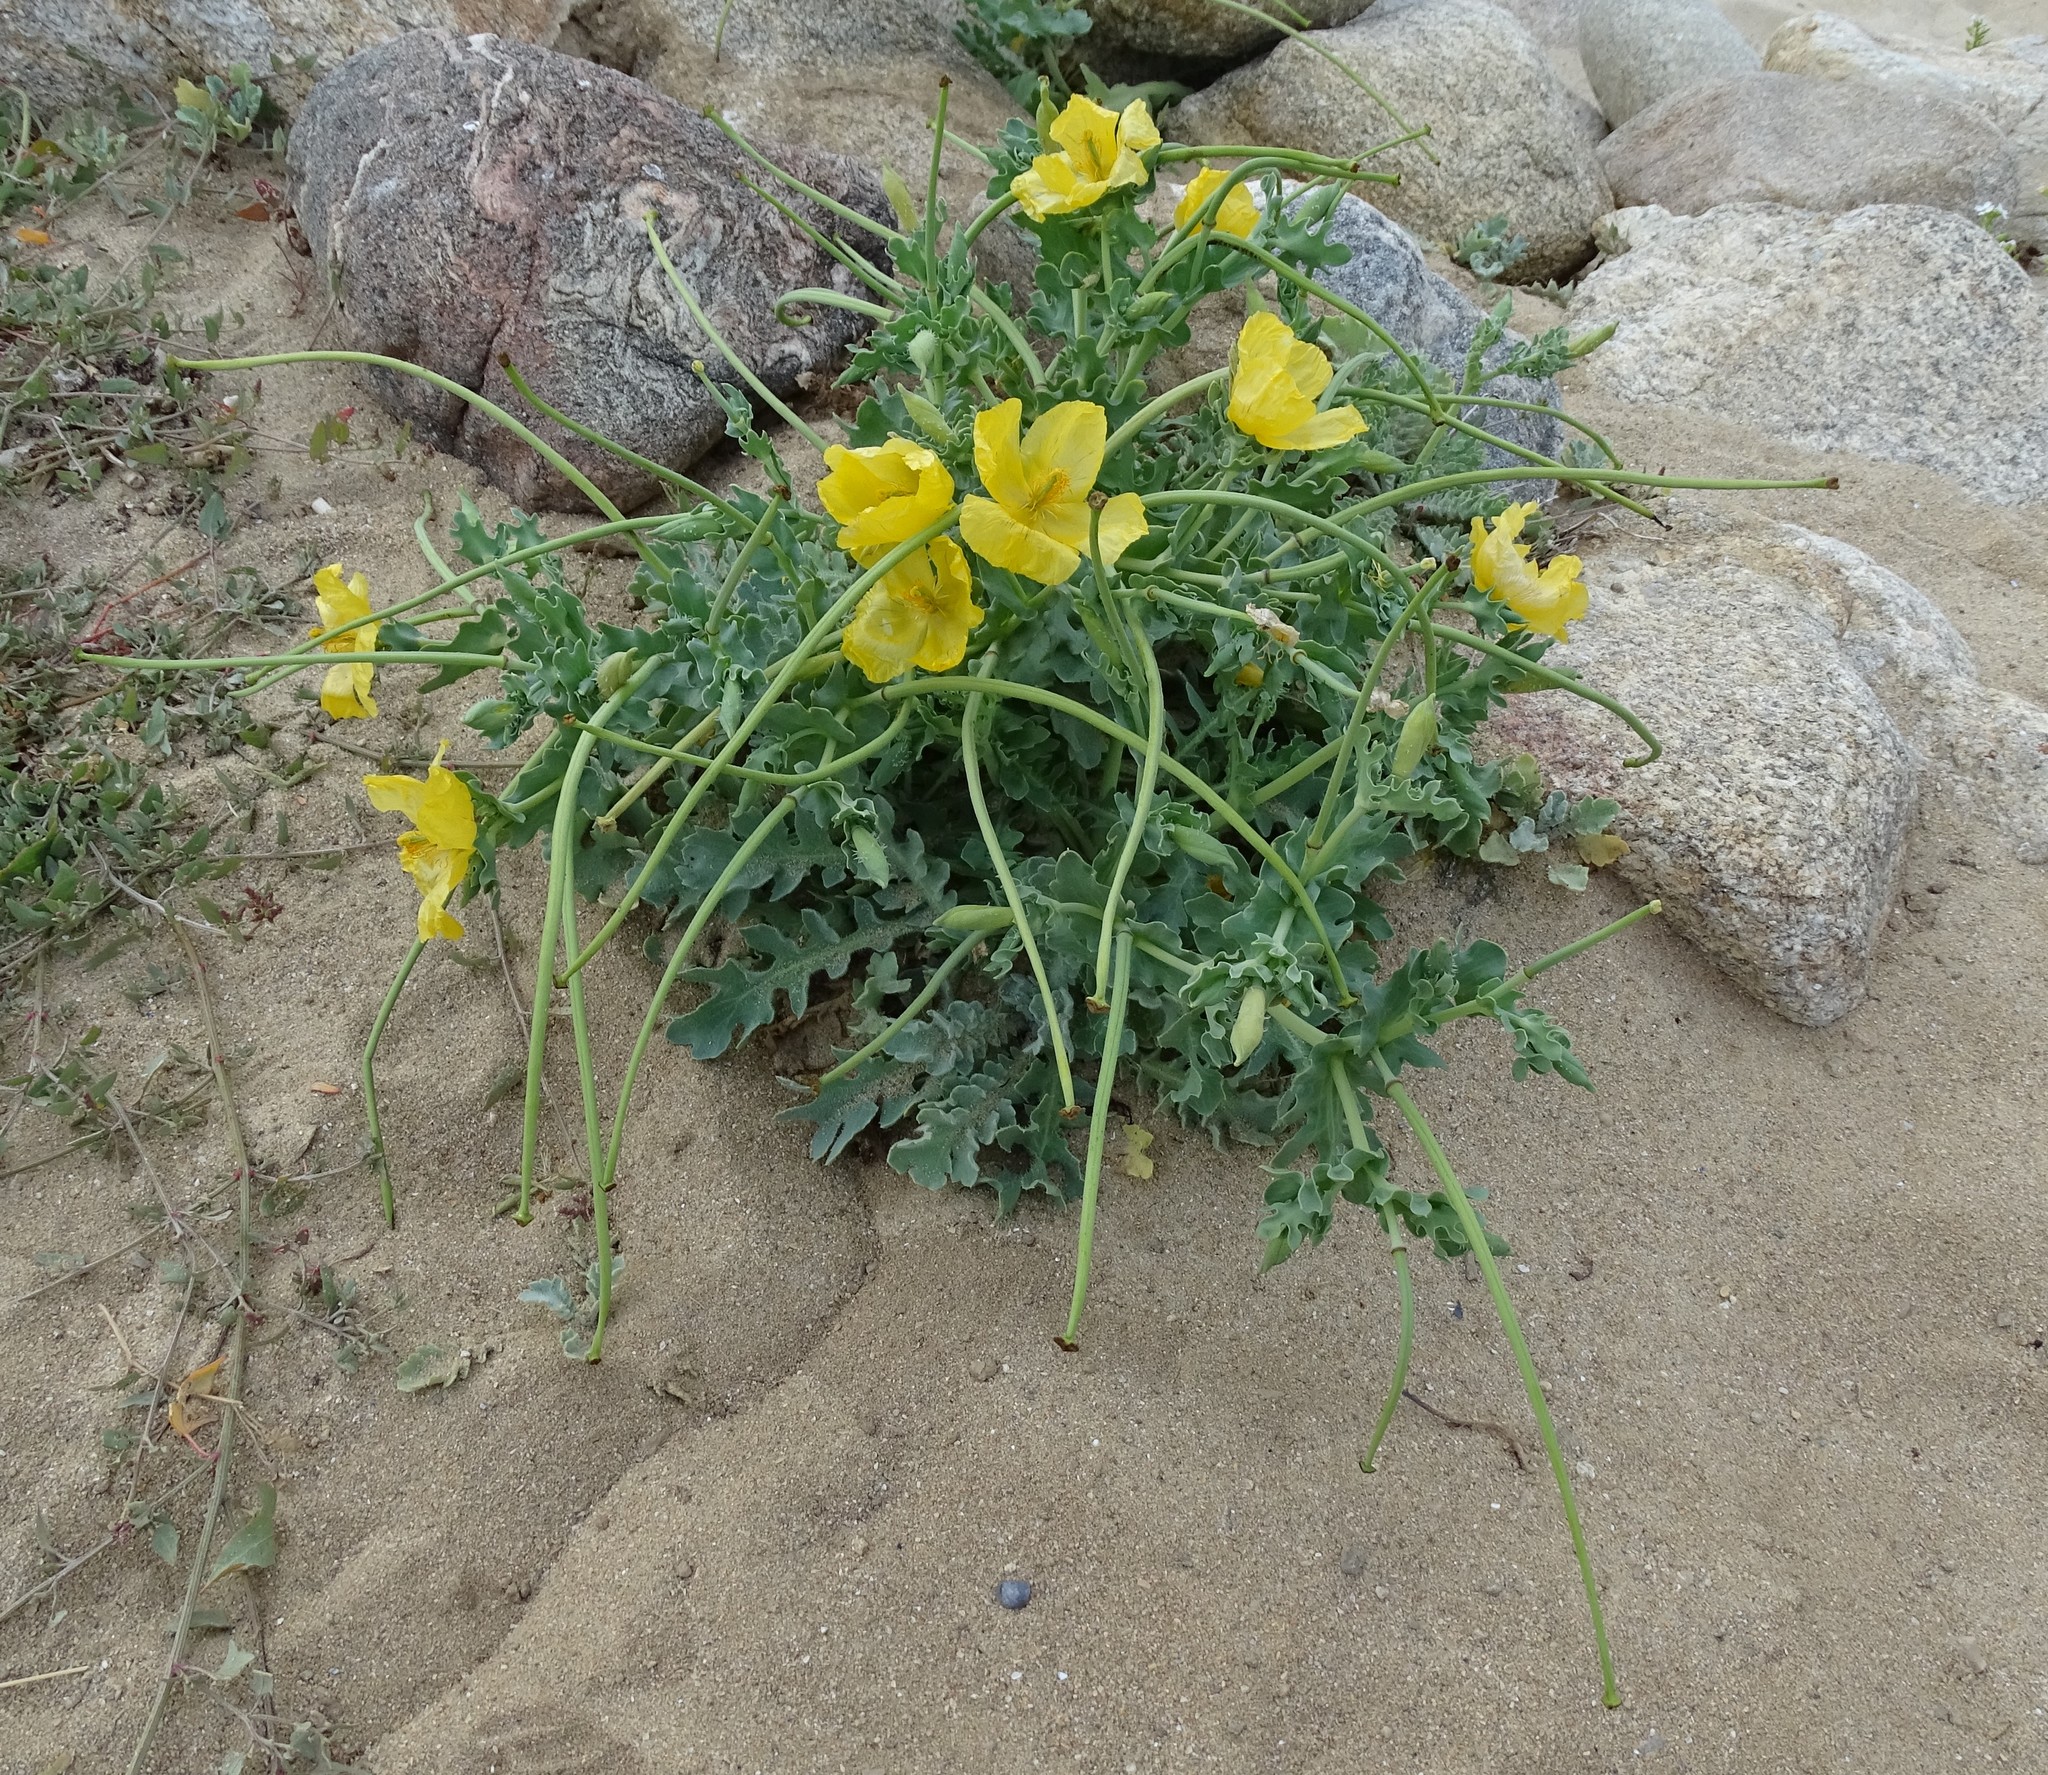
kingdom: Plantae
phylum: Tracheophyta
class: Magnoliopsida
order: Ranunculales
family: Papaveraceae
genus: Glaucium
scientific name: Glaucium flavum
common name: Yellow horned-poppy
